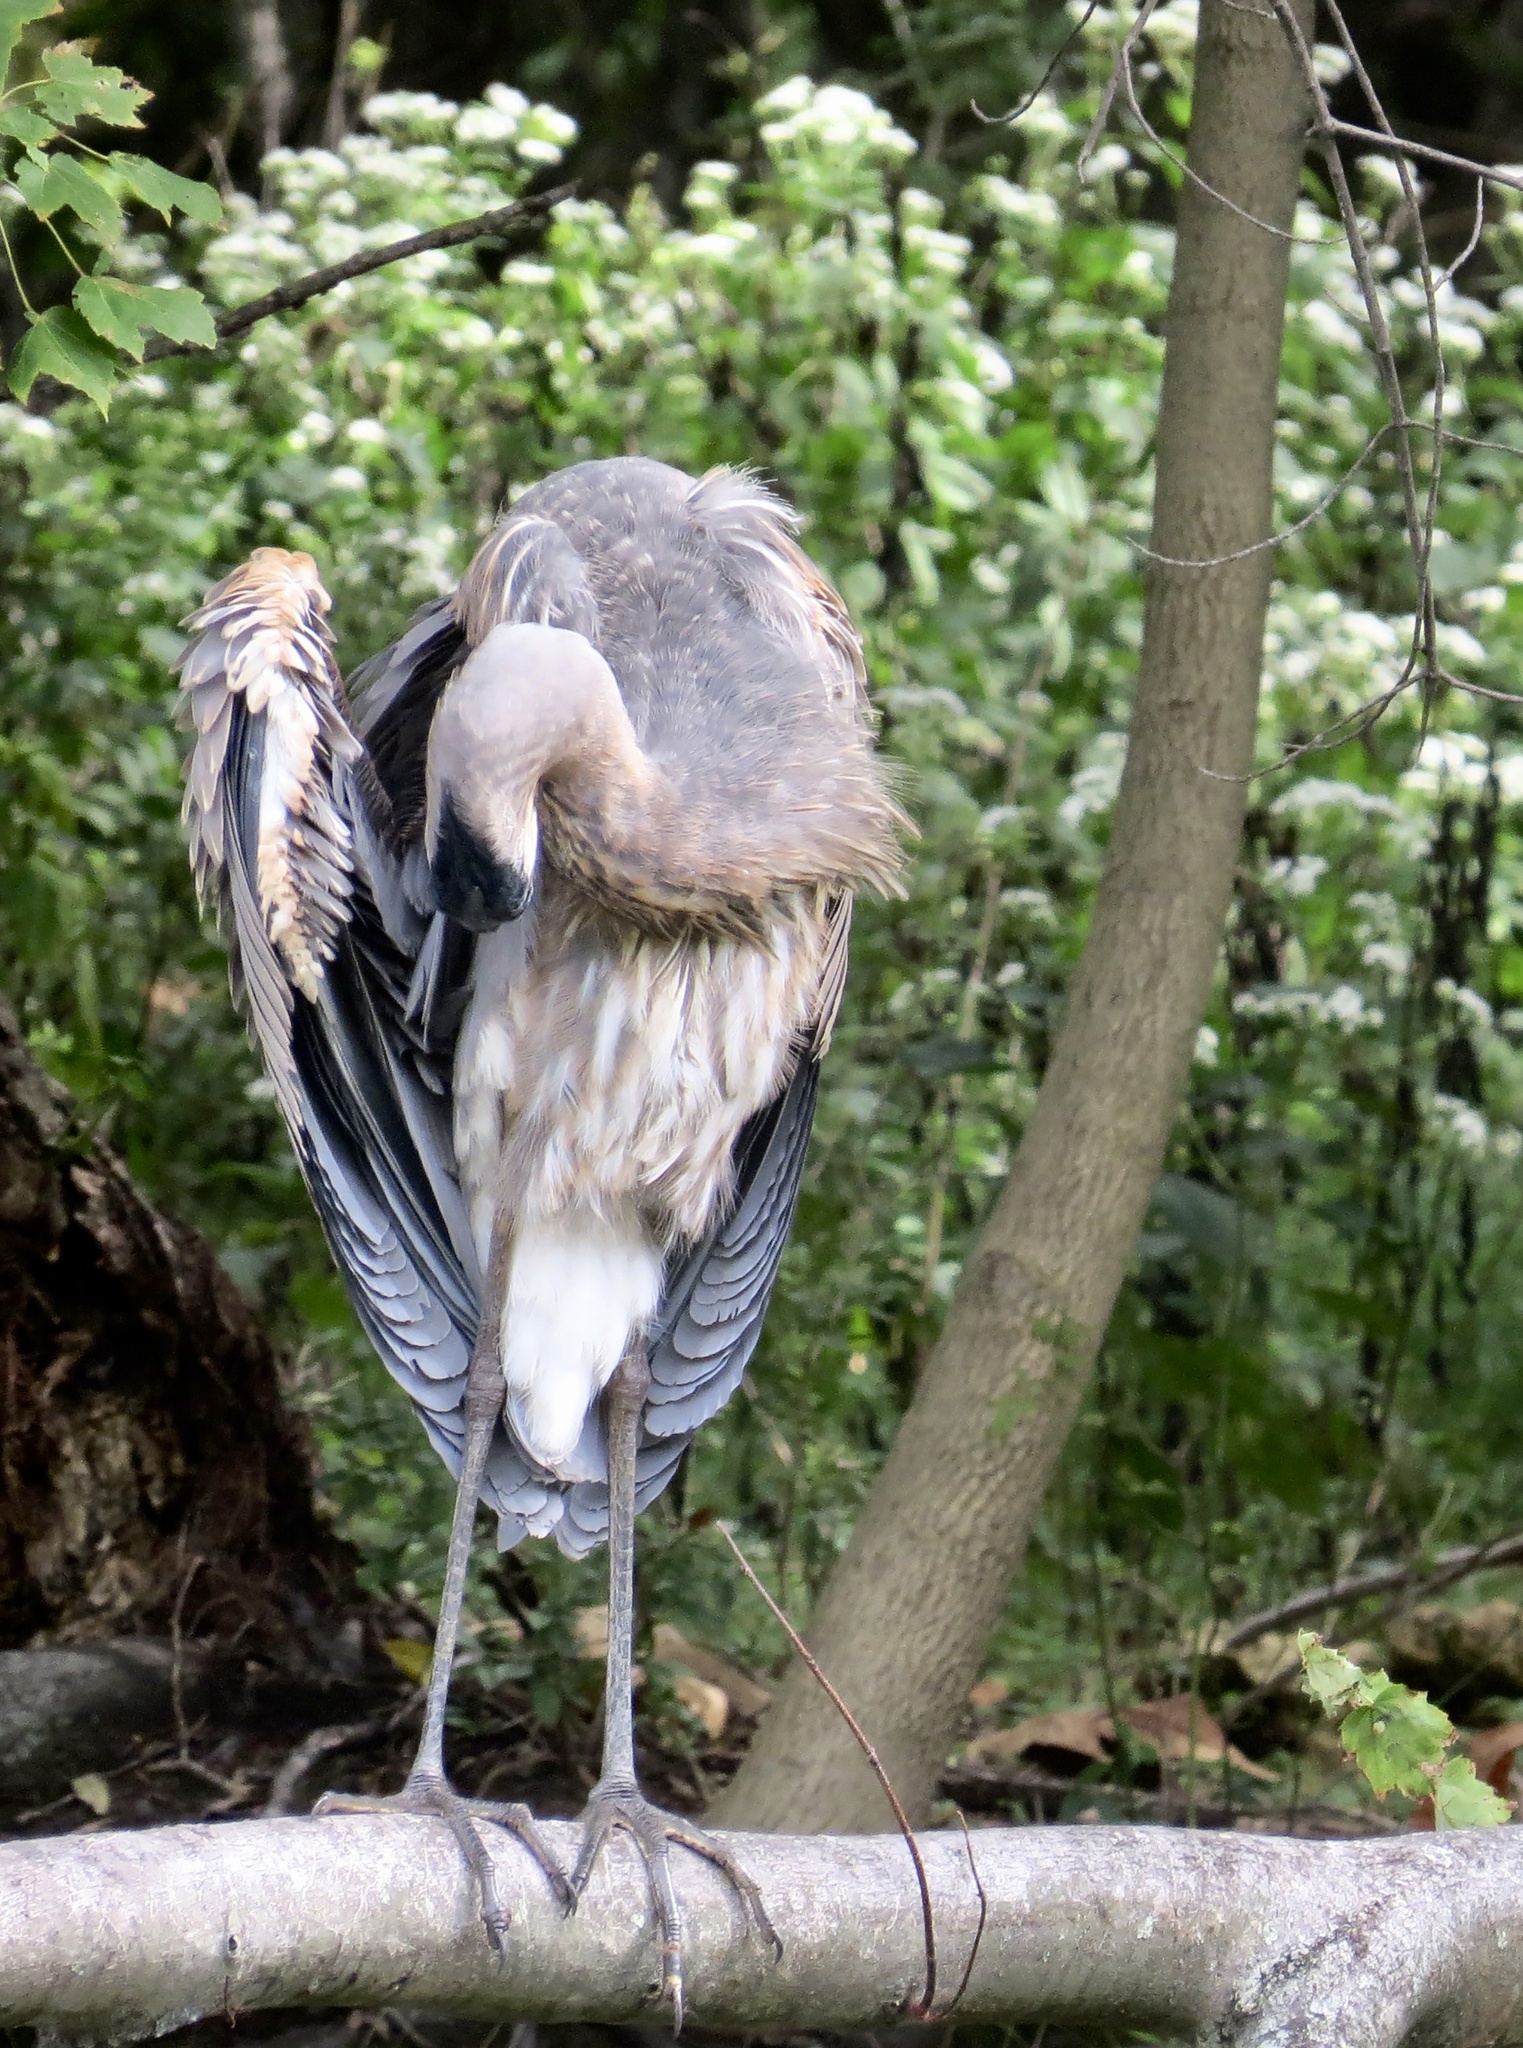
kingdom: Animalia
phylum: Chordata
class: Aves
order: Pelecaniformes
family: Ardeidae
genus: Ardea
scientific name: Ardea herodias
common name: Great blue heron
